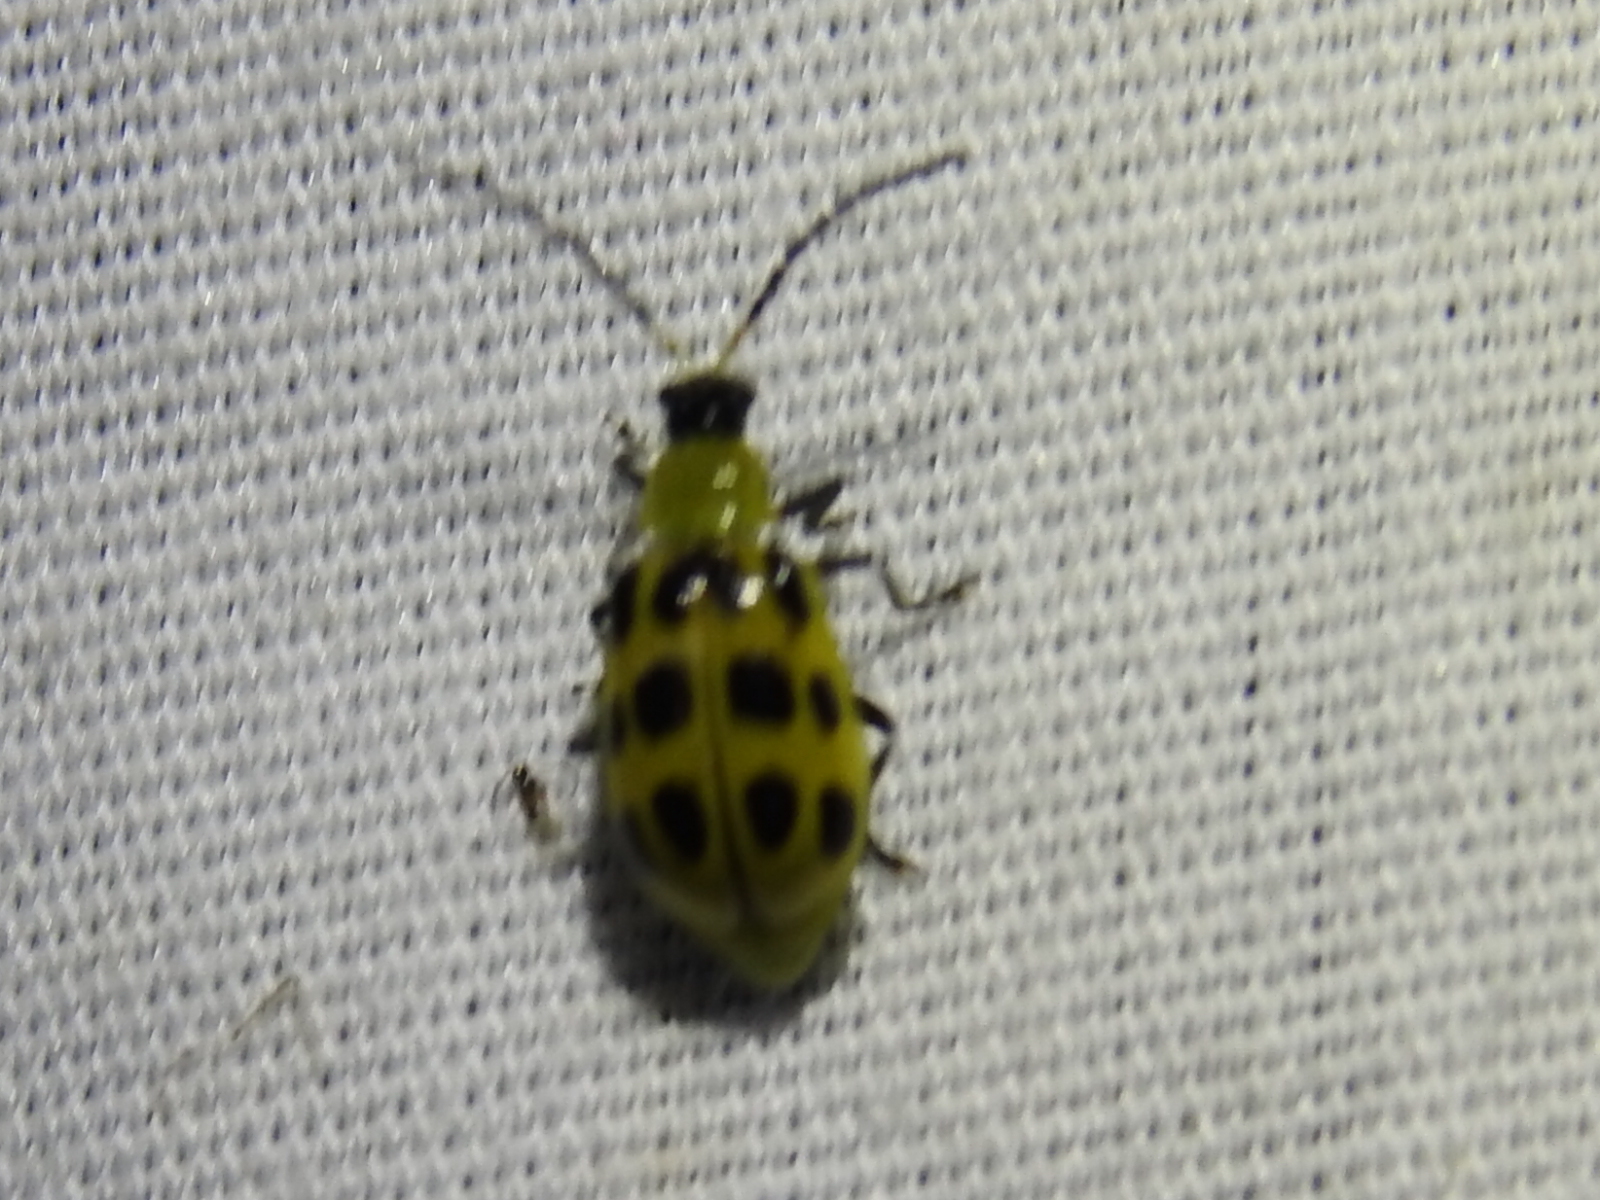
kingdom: Animalia
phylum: Arthropoda
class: Insecta
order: Coleoptera
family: Chrysomelidae
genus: Diabrotica
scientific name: Diabrotica undecimpunctata
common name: Spotted cucumber beetle
